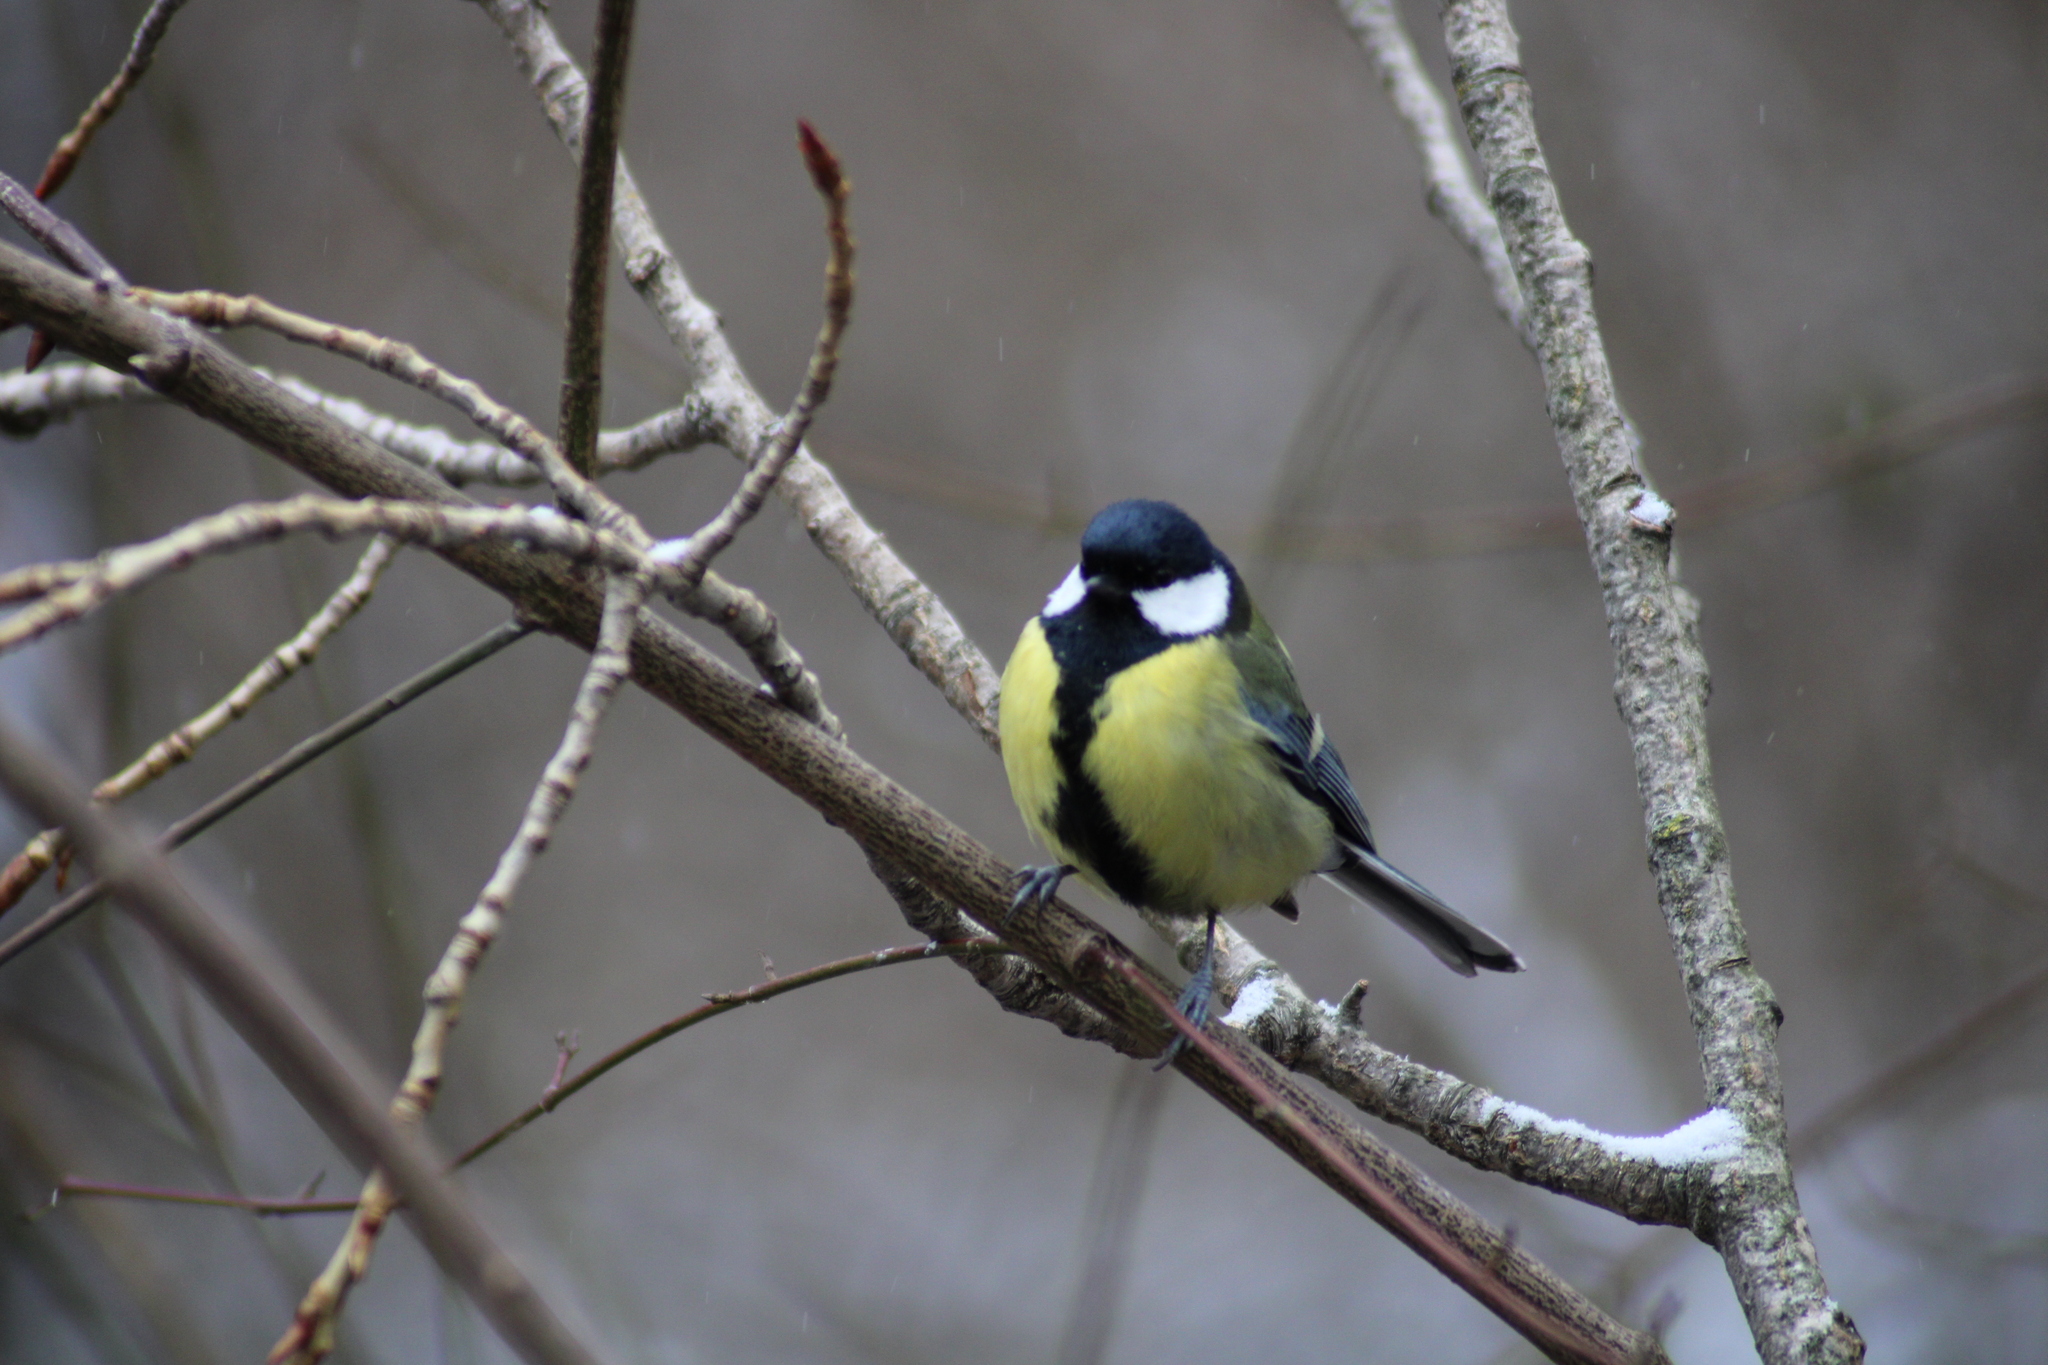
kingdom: Animalia
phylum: Chordata
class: Aves
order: Passeriformes
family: Paridae
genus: Parus
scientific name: Parus major
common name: Great tit
